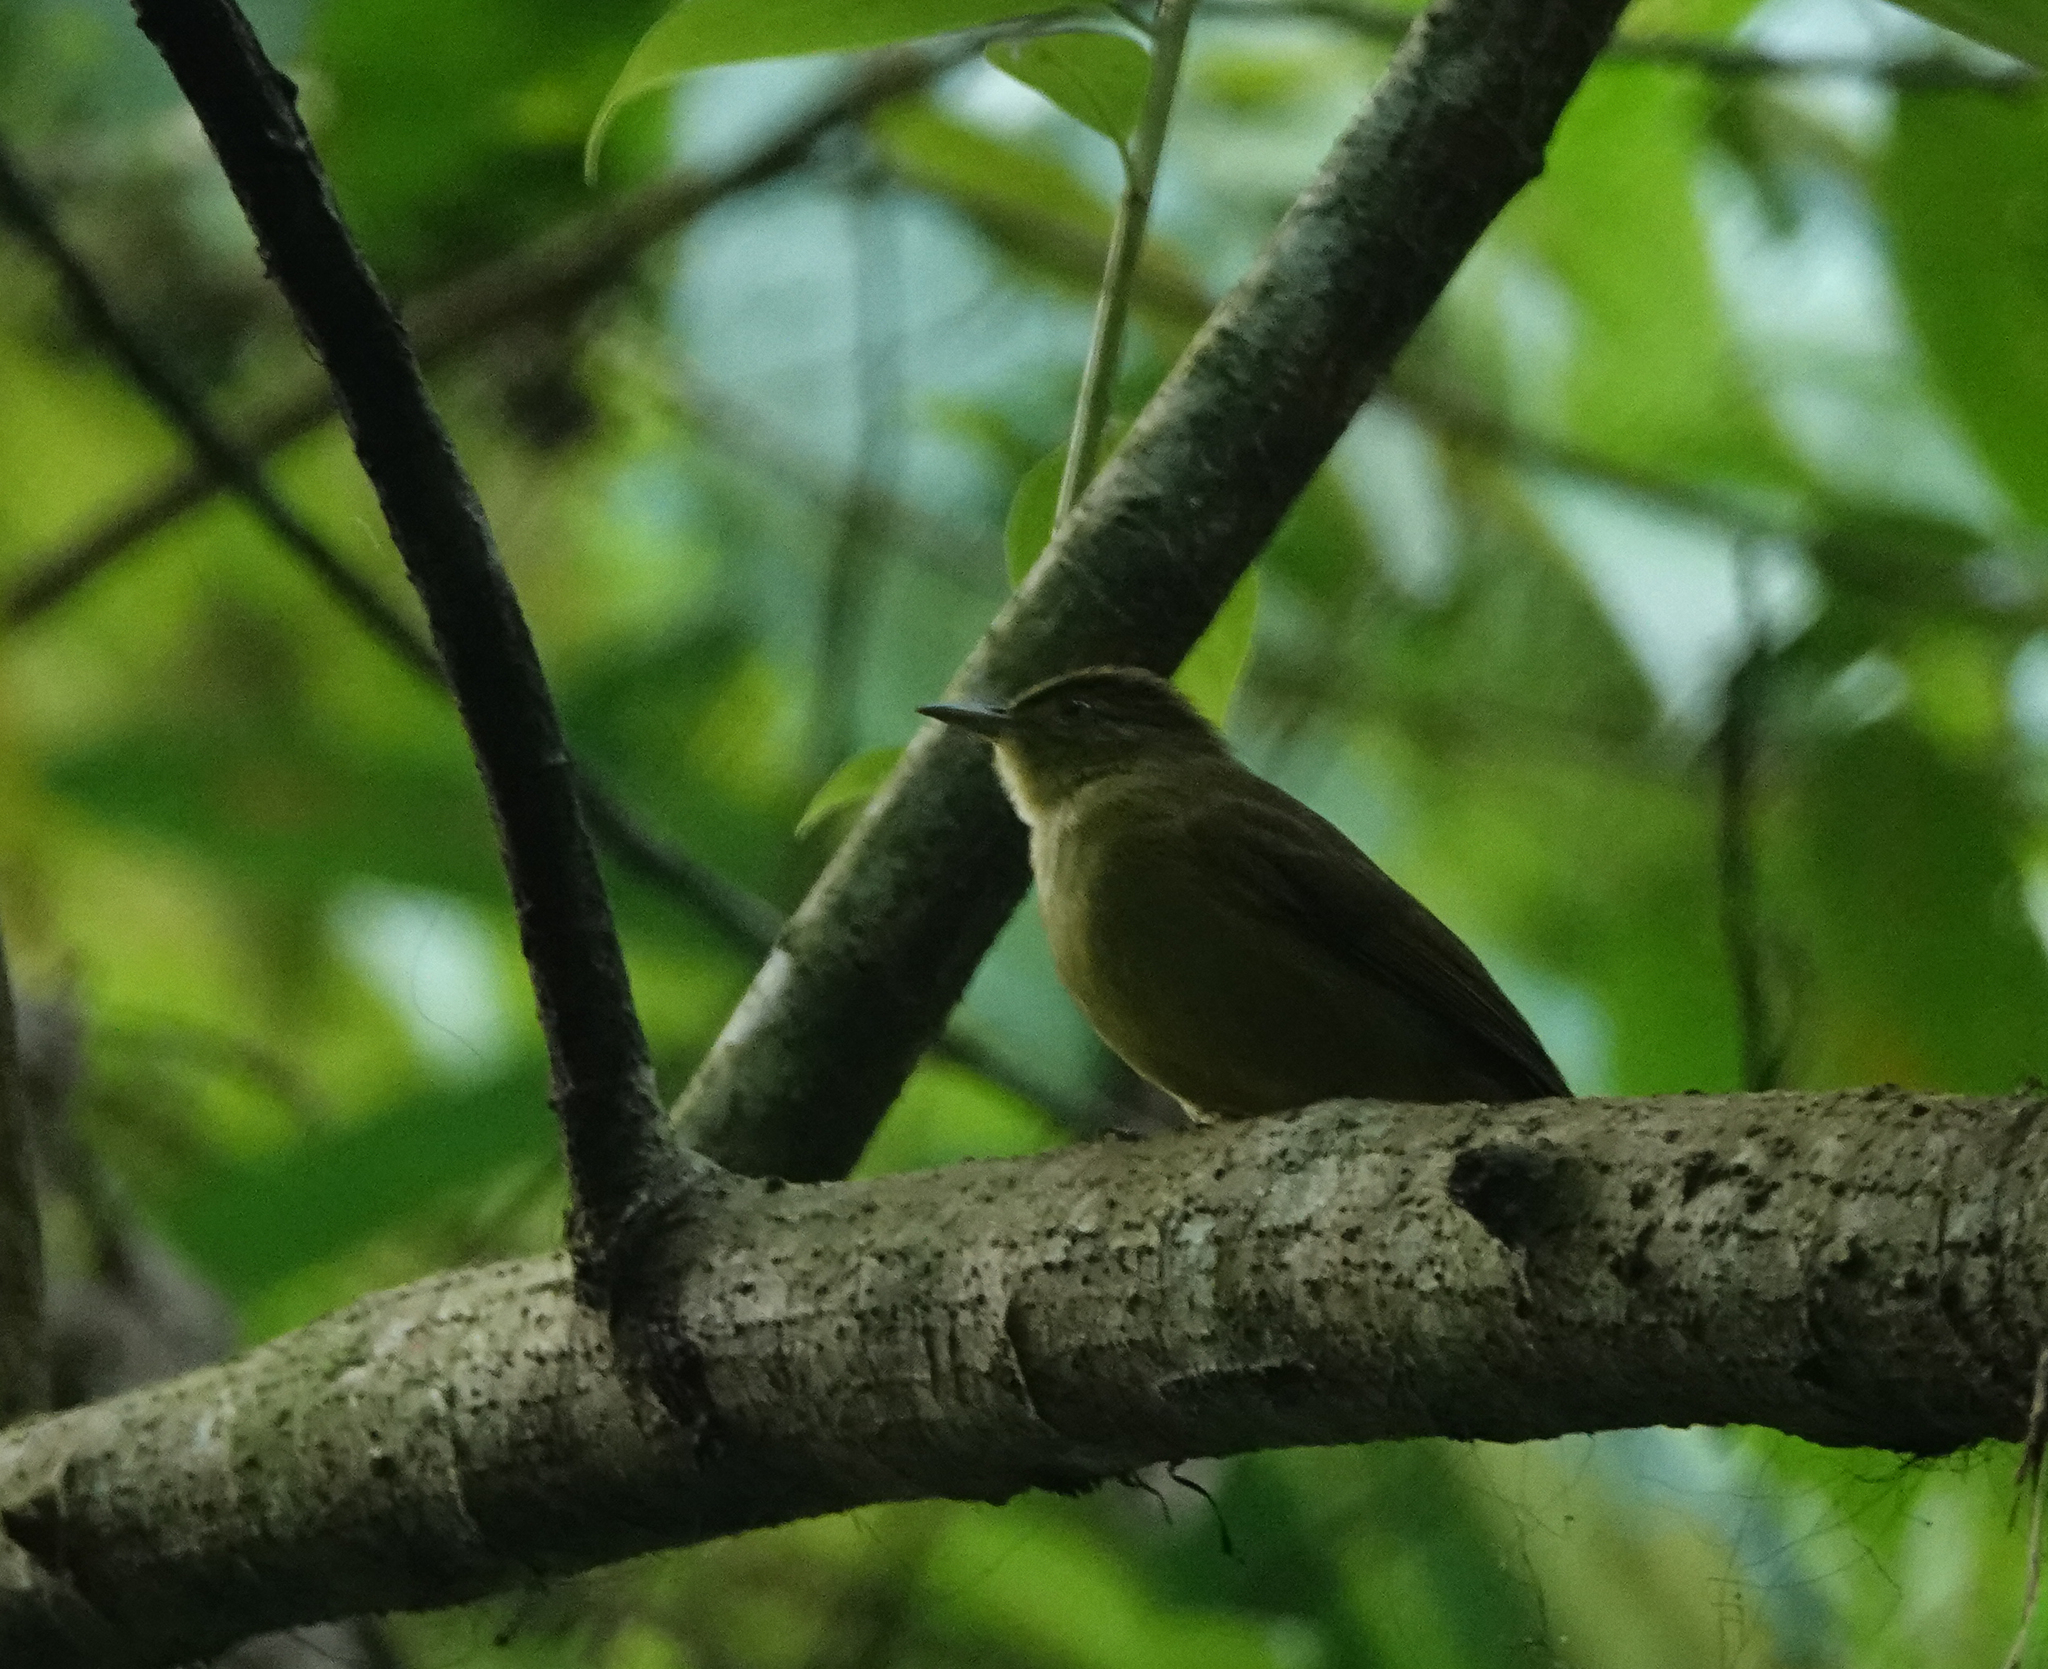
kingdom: Animalia
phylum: Chordata
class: Aves
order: Passeriformes
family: Pycnonotidae
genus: Iole
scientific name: Iole virescens
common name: Olive bulbul
